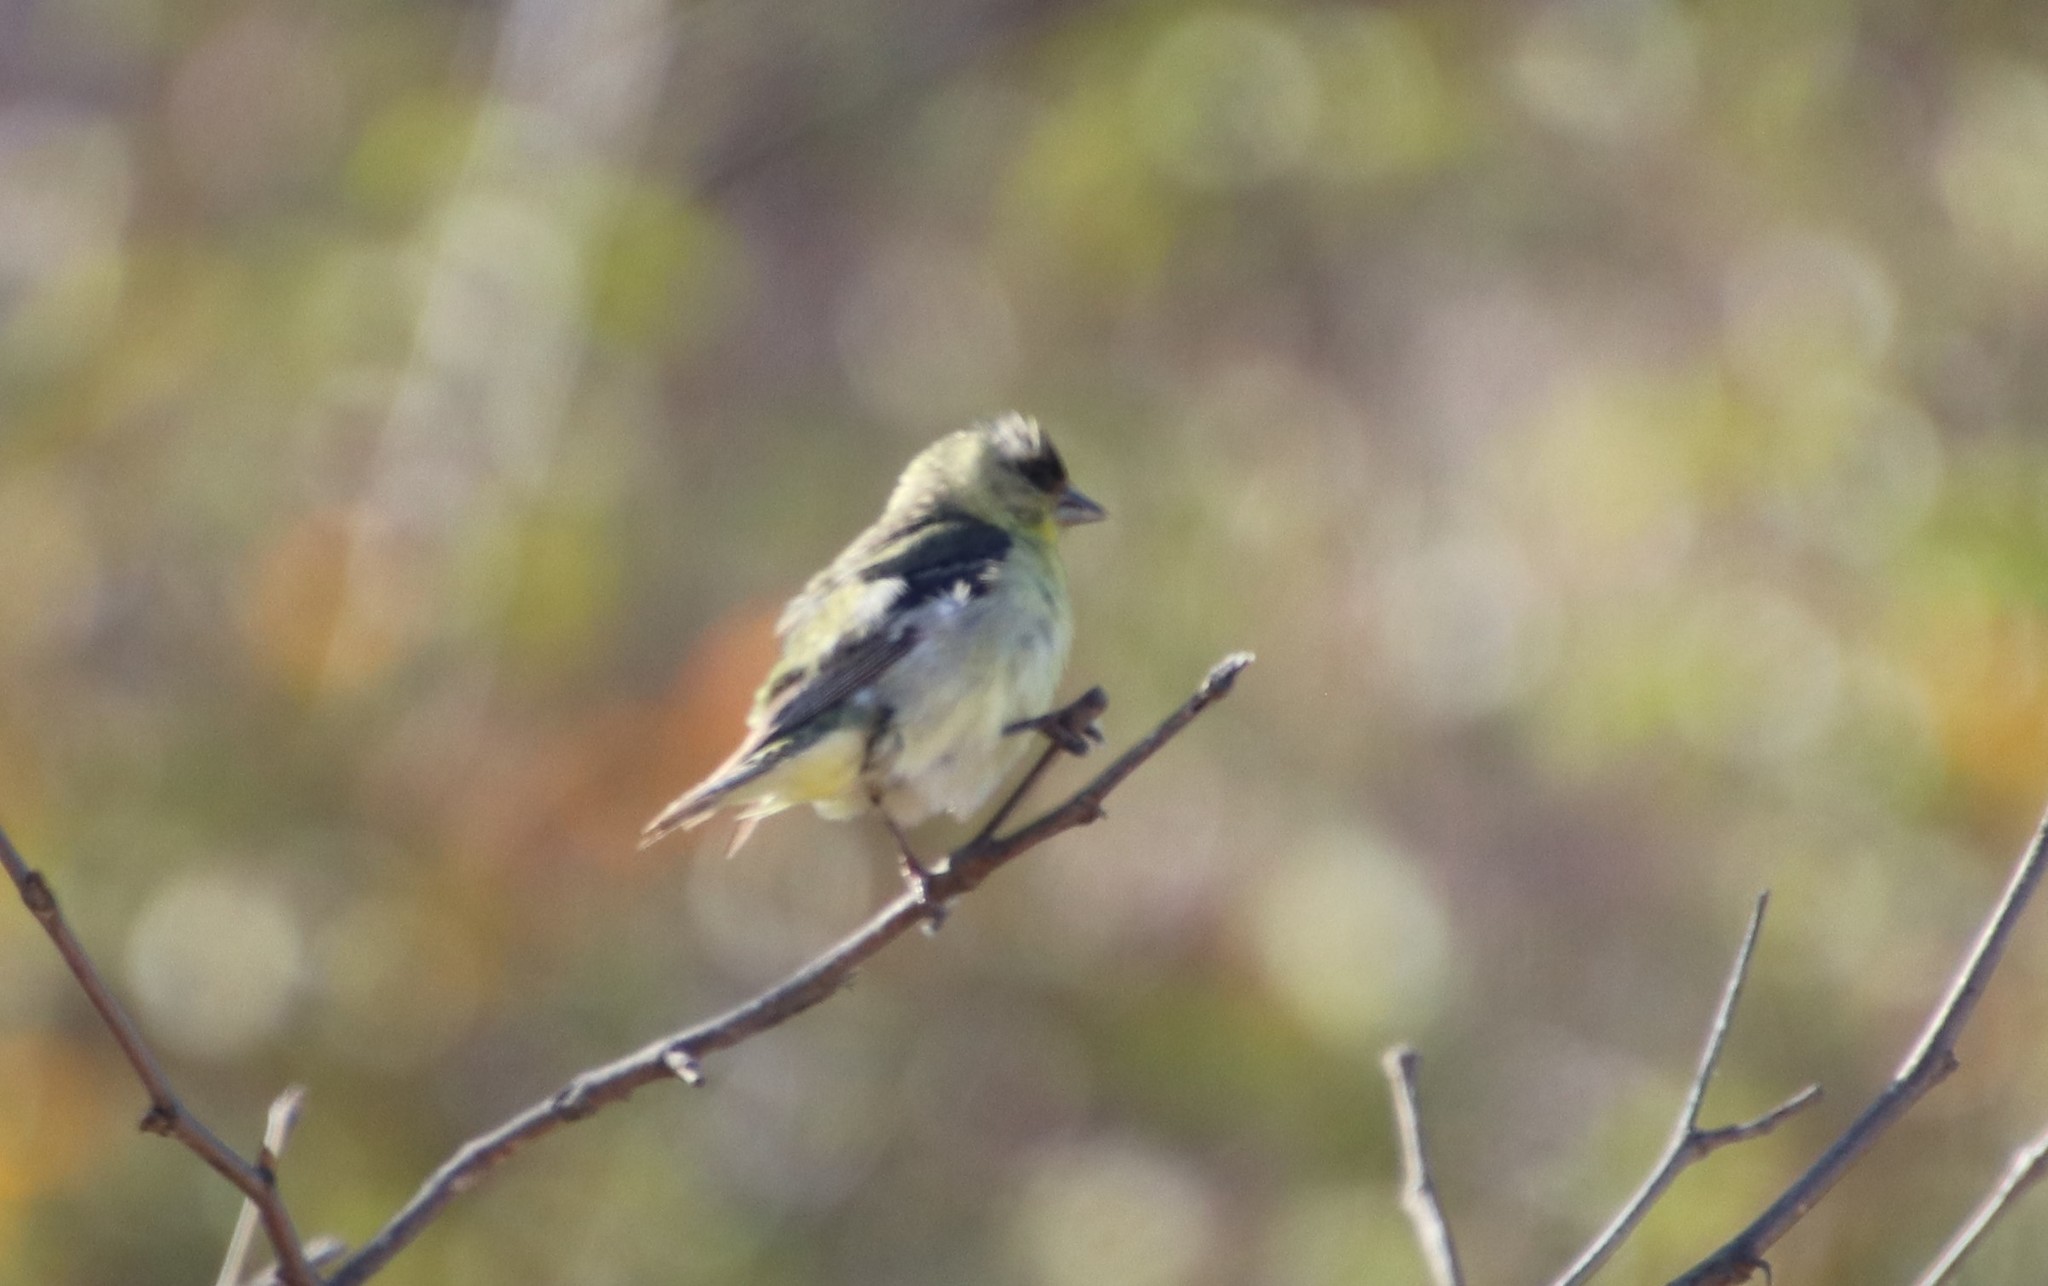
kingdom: Animalia
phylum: Chordata
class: Aves
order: Passeriformes
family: Fringillidae
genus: Spinus
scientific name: Spinus psaltria
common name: Lesser goldfinch
